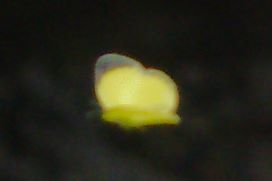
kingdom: Animalia
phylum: Arthropoda
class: Insecta
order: Lepidoptera
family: Pieridae
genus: Pyrisitia
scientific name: Pyrisitia nise
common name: Mimosa yellow
